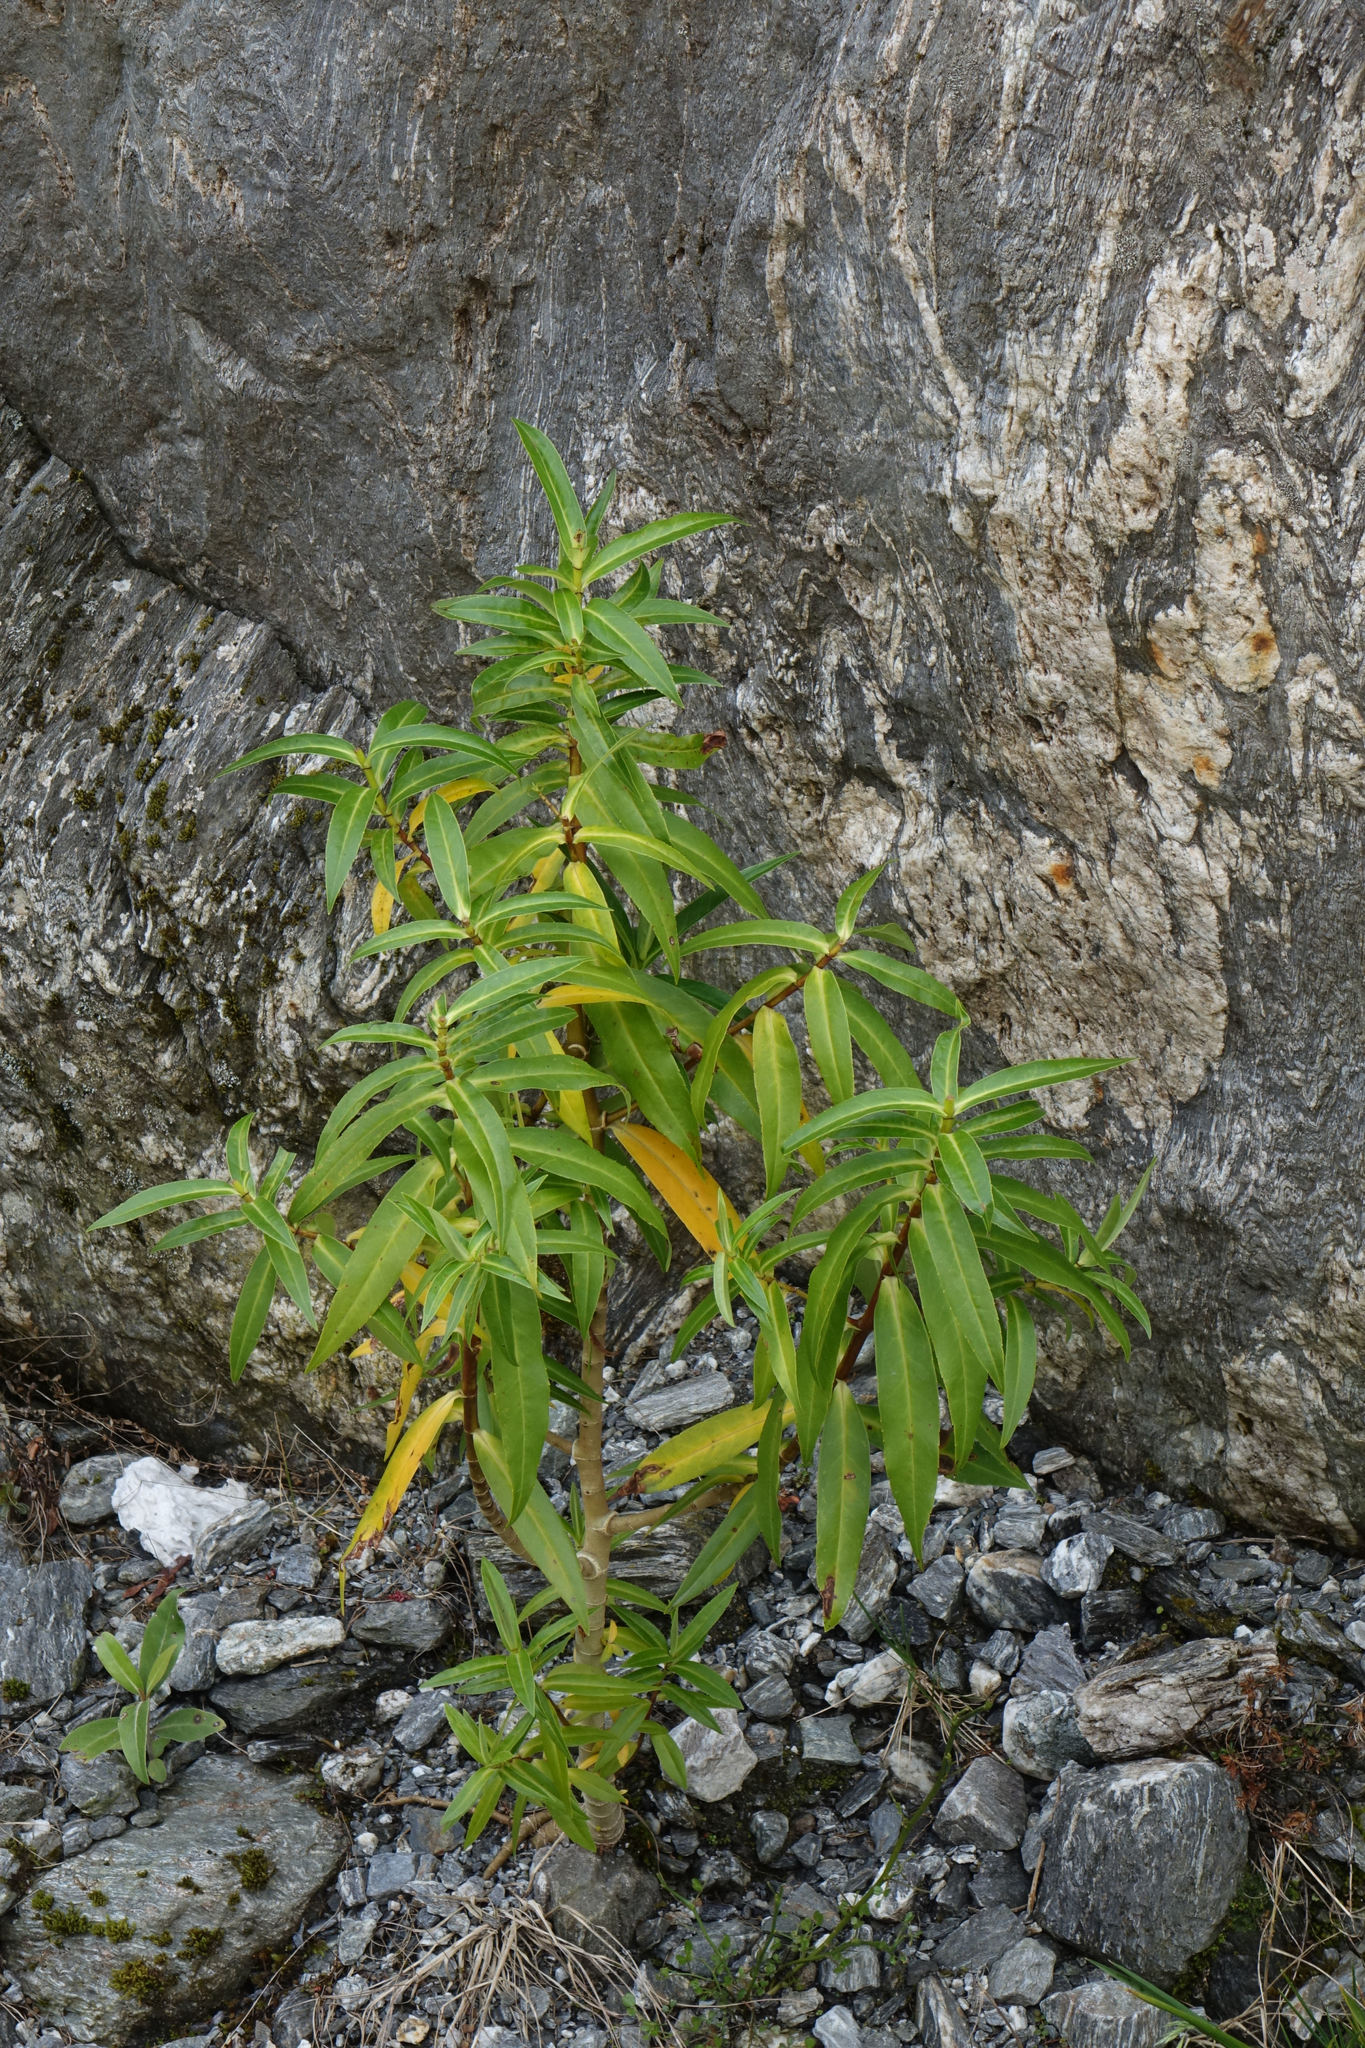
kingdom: Plantae
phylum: Tracheophyta
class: Magnoliopsida
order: Lamiales
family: Plantaginaceae
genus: Veronica
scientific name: Veronica salicifolia
